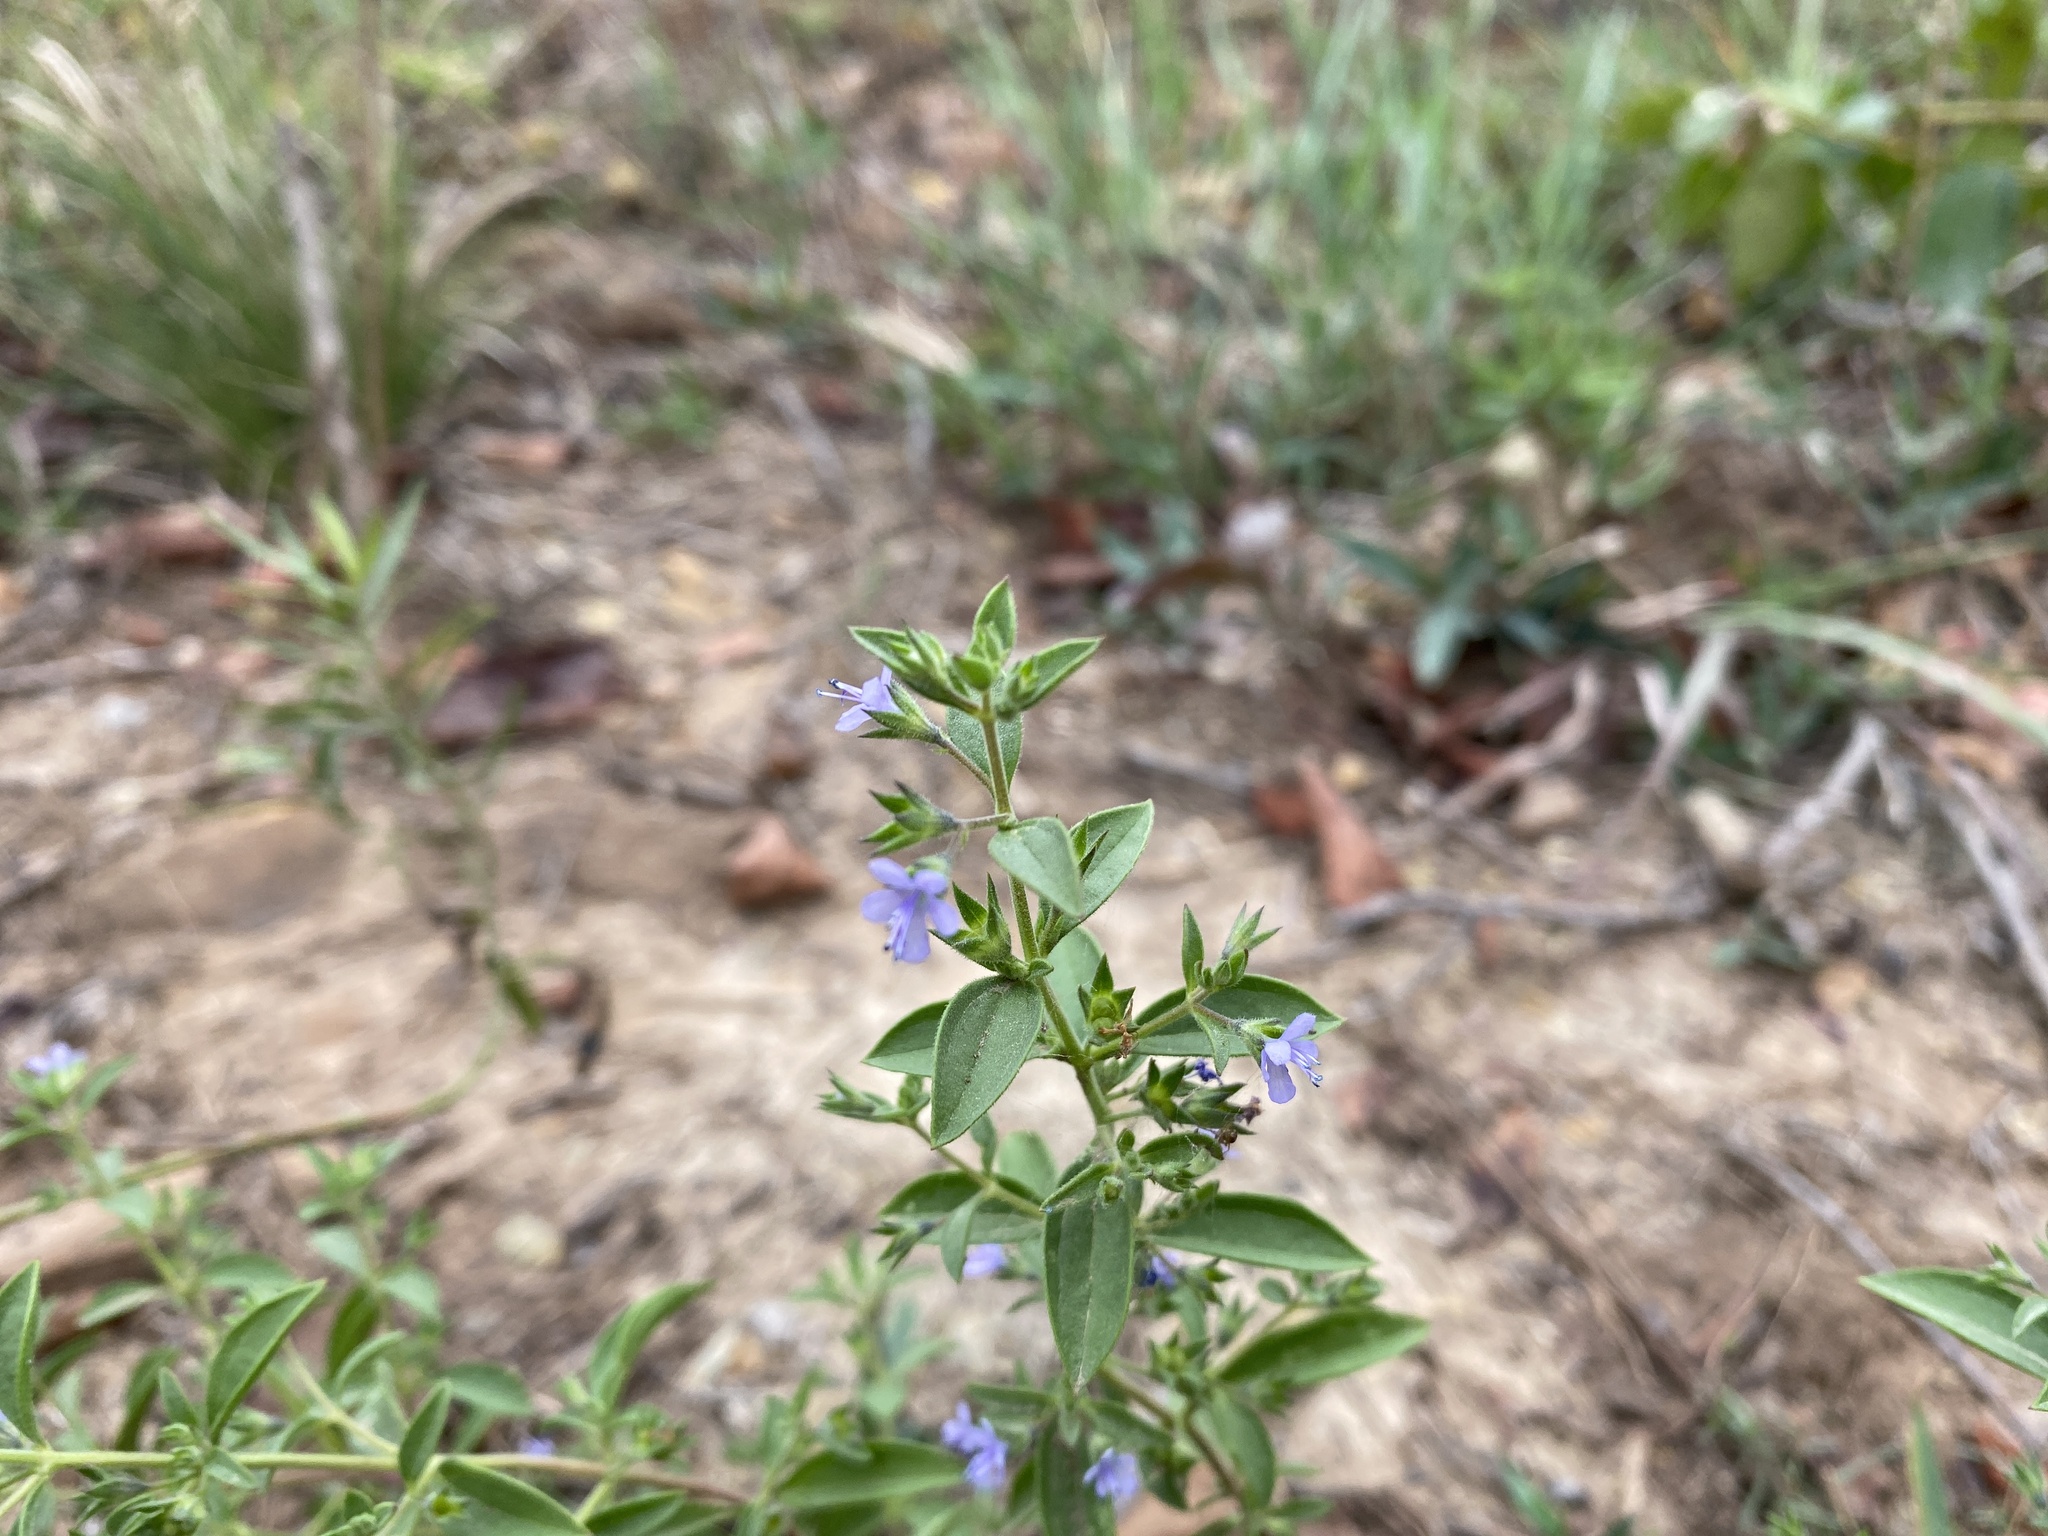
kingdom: Plantae
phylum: Tracheophyta
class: Magnoliopsida
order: Lamiales
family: Lamiaceae
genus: Trichostema
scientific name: Trichostema brachiatum
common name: False pennyroyal
